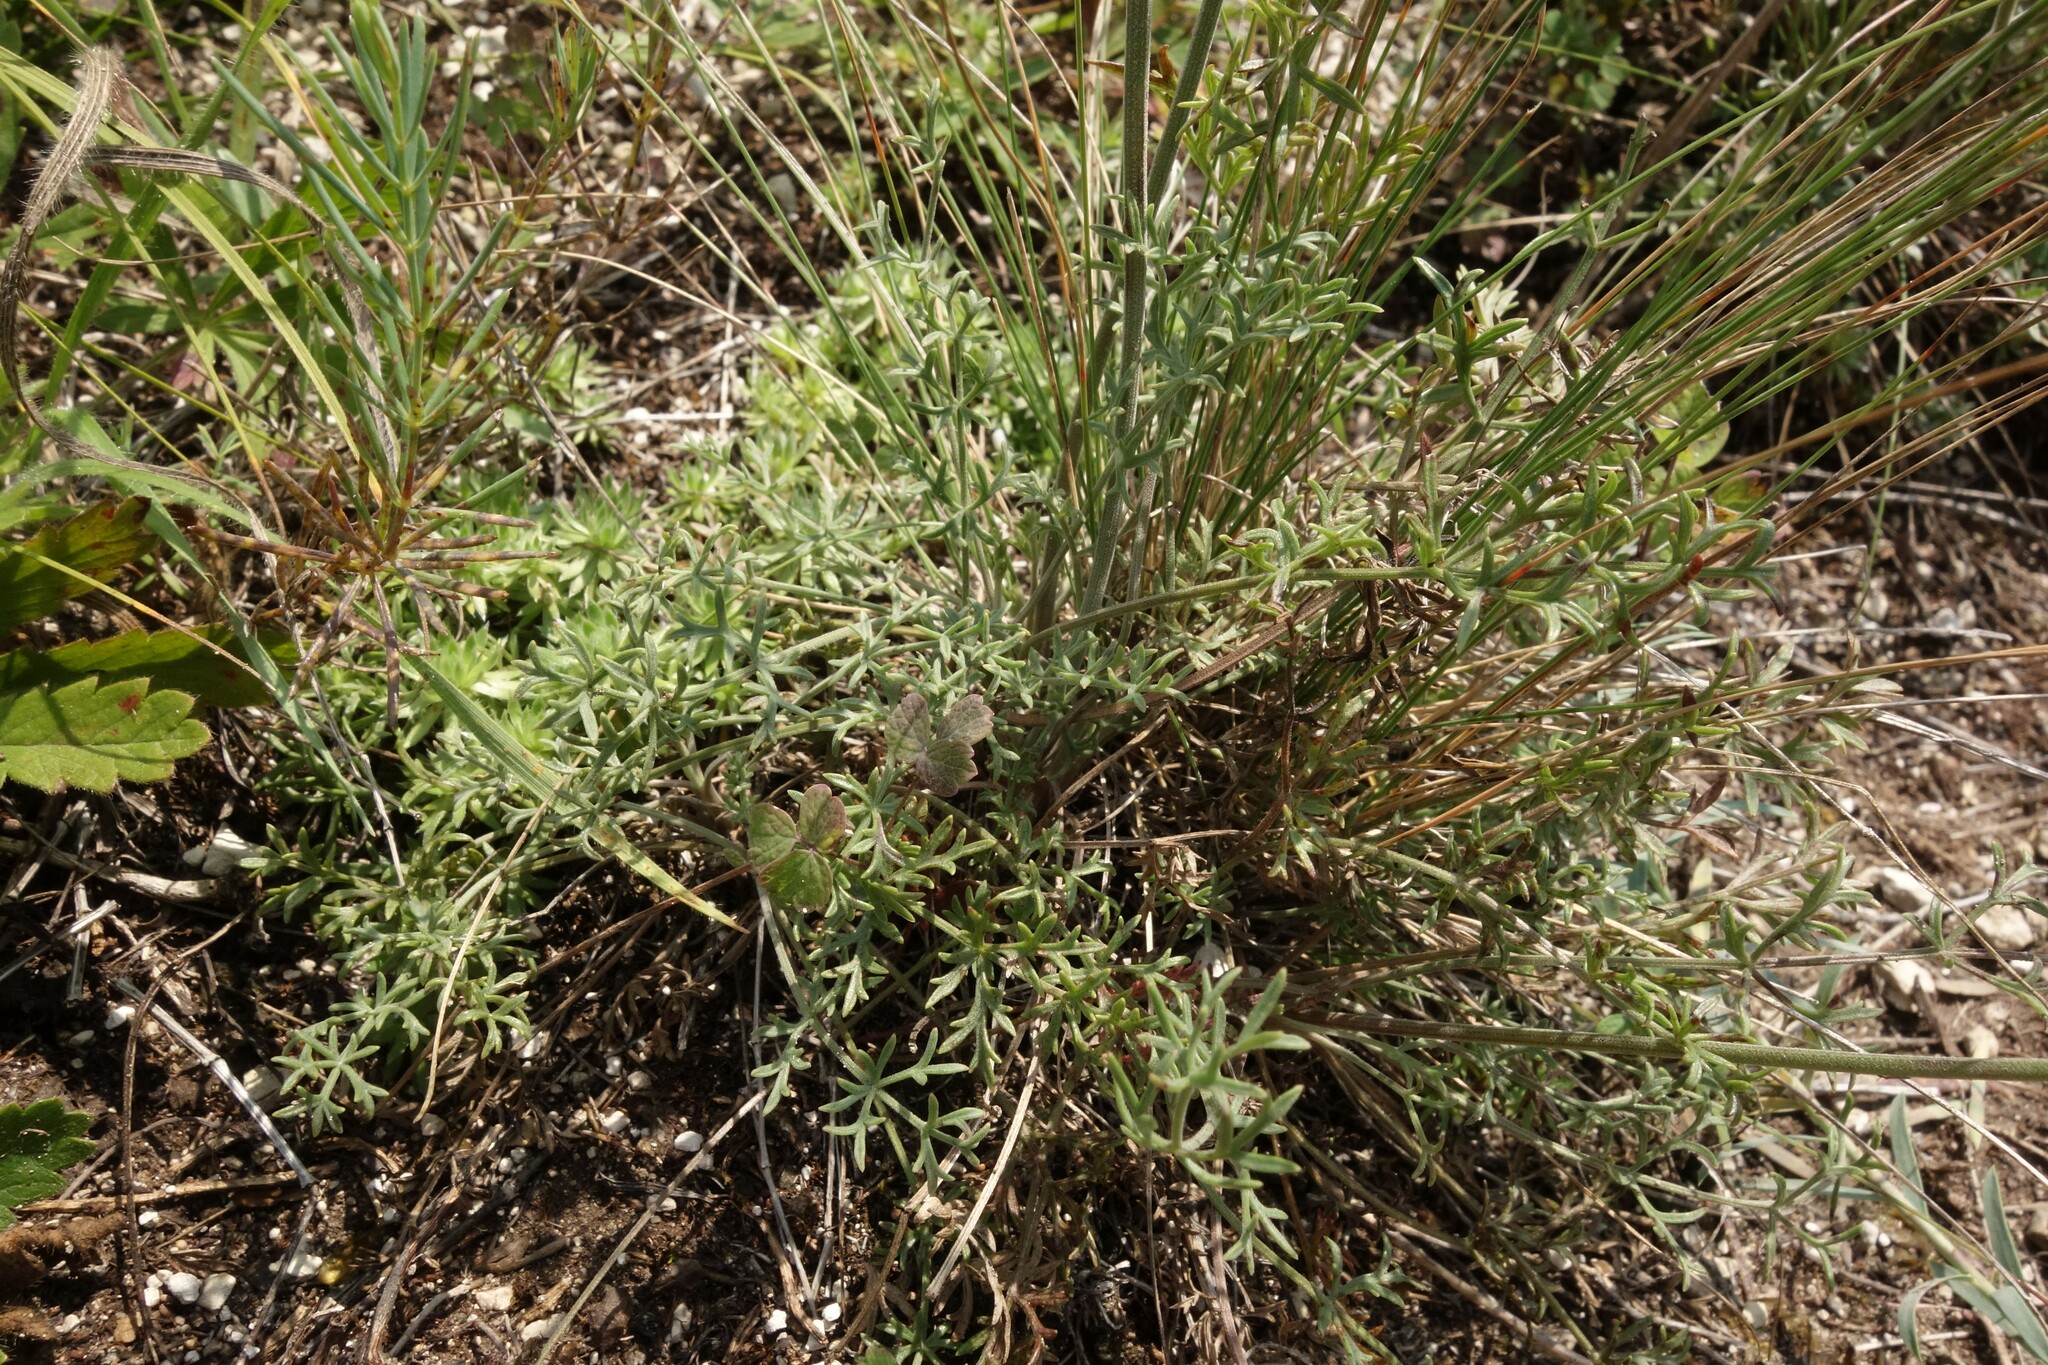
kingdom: Plantae
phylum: Tracheophyta
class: Magnoliopsida
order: Apiales
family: Apiaceae
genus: Pimpinella
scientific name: Pimpinella tragium
